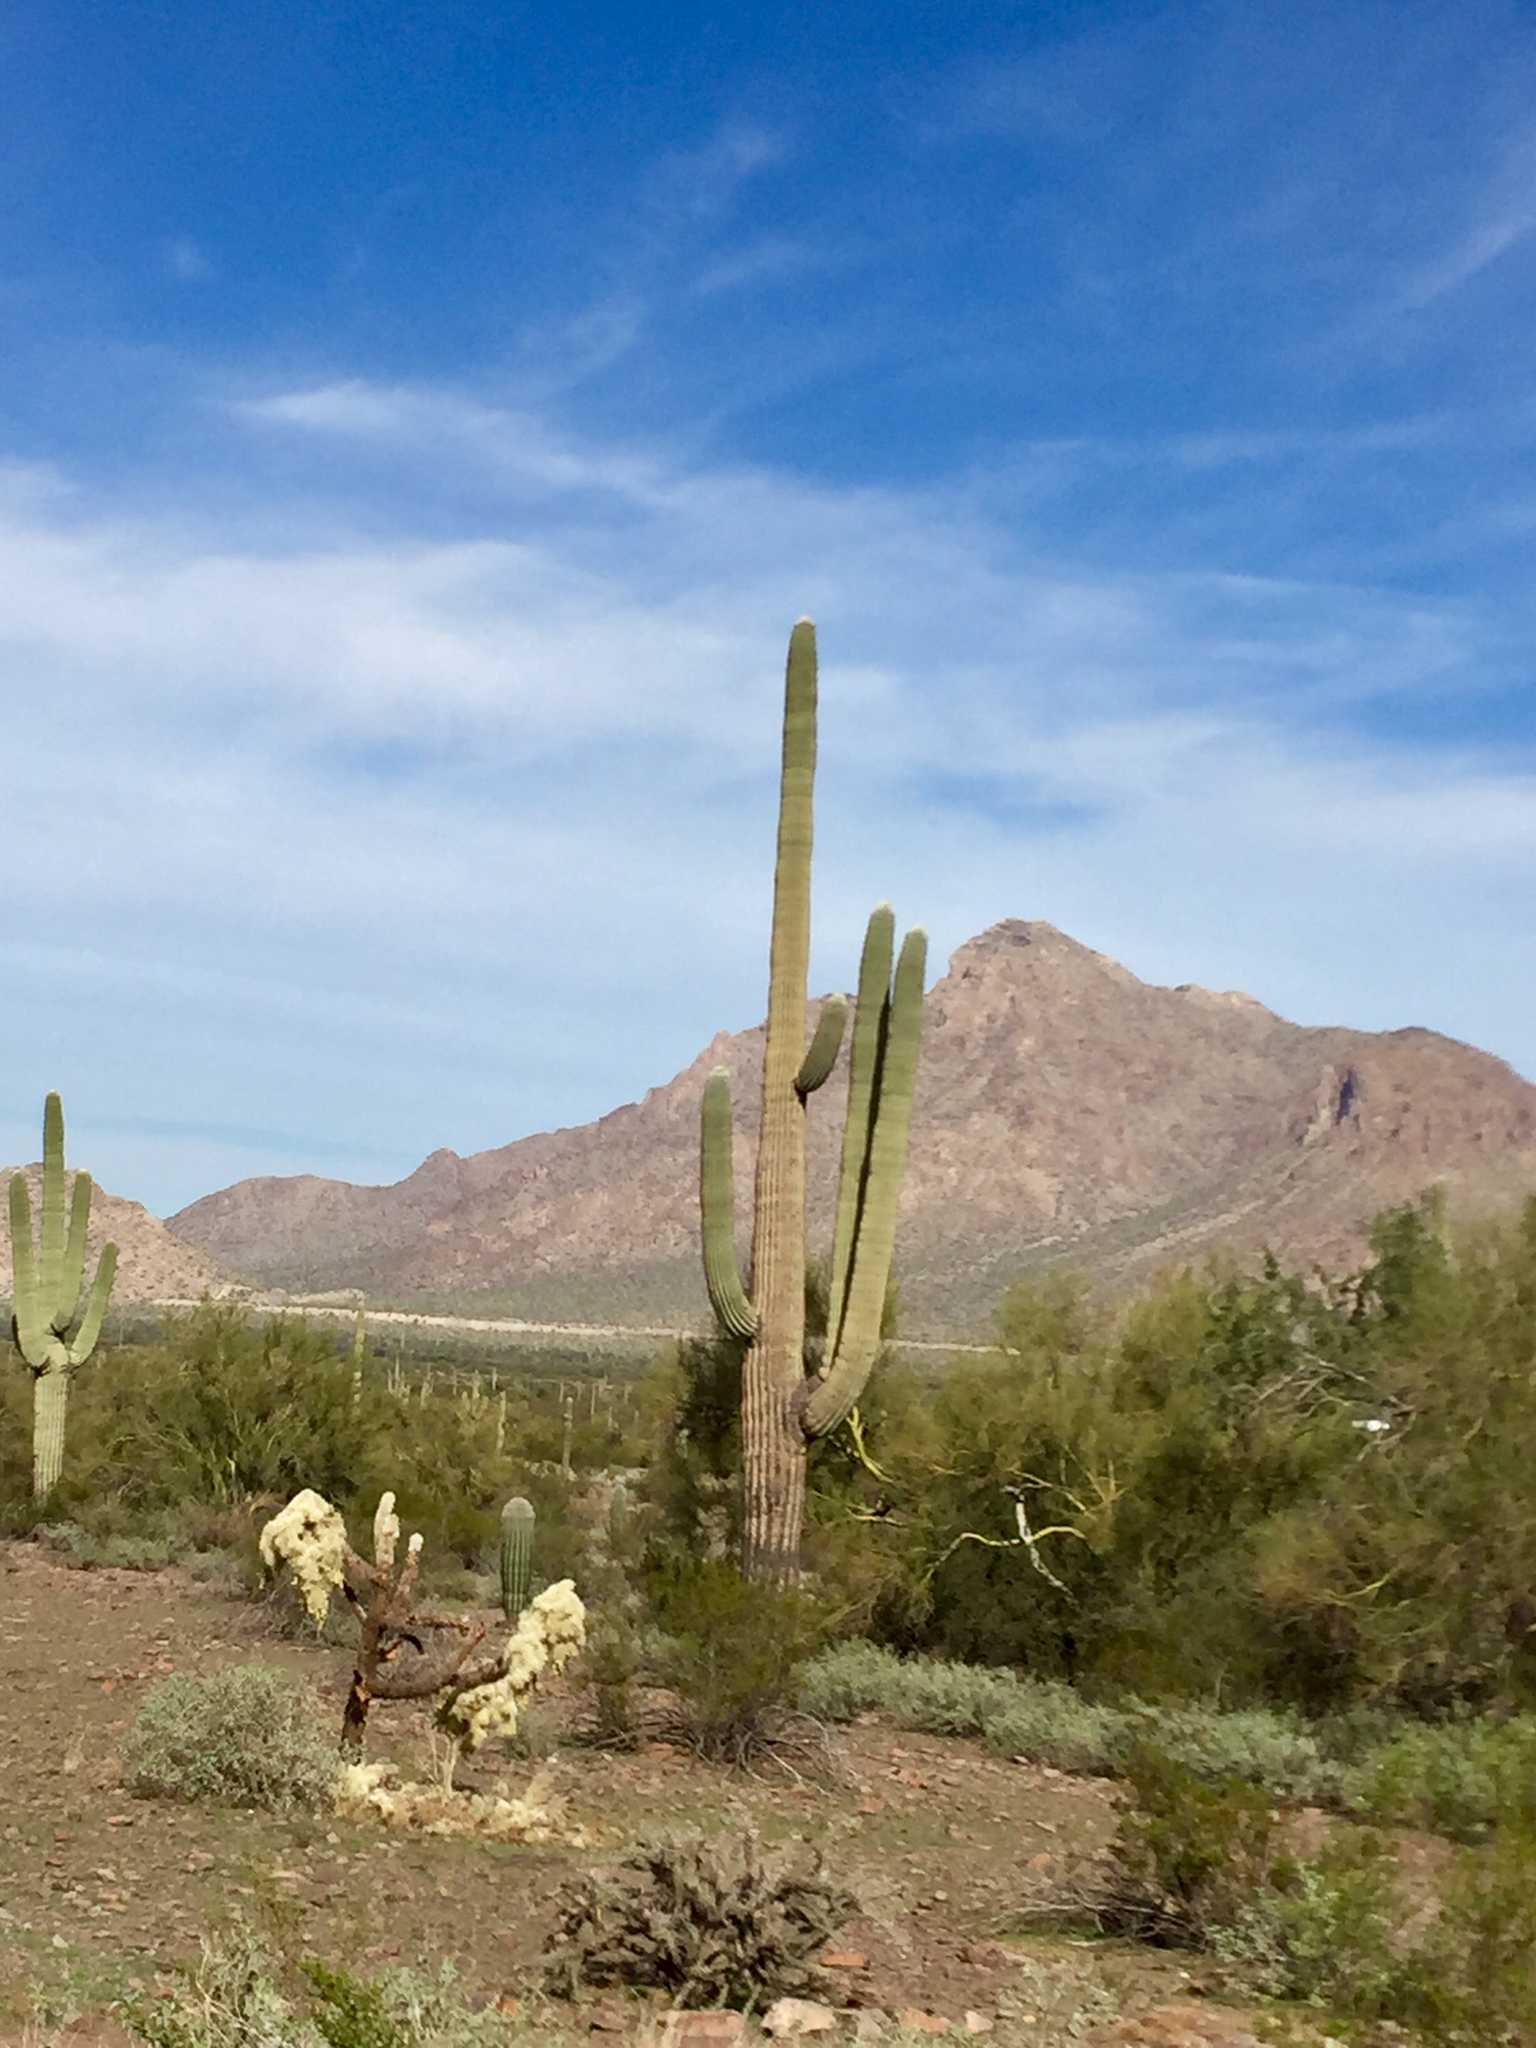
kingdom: Plantae
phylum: Tracheophyta
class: Magnoliopsida
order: Caryophyllales
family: Cactaceae
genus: Carnegiea
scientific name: Carnegiea gigantea
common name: Saguaro
